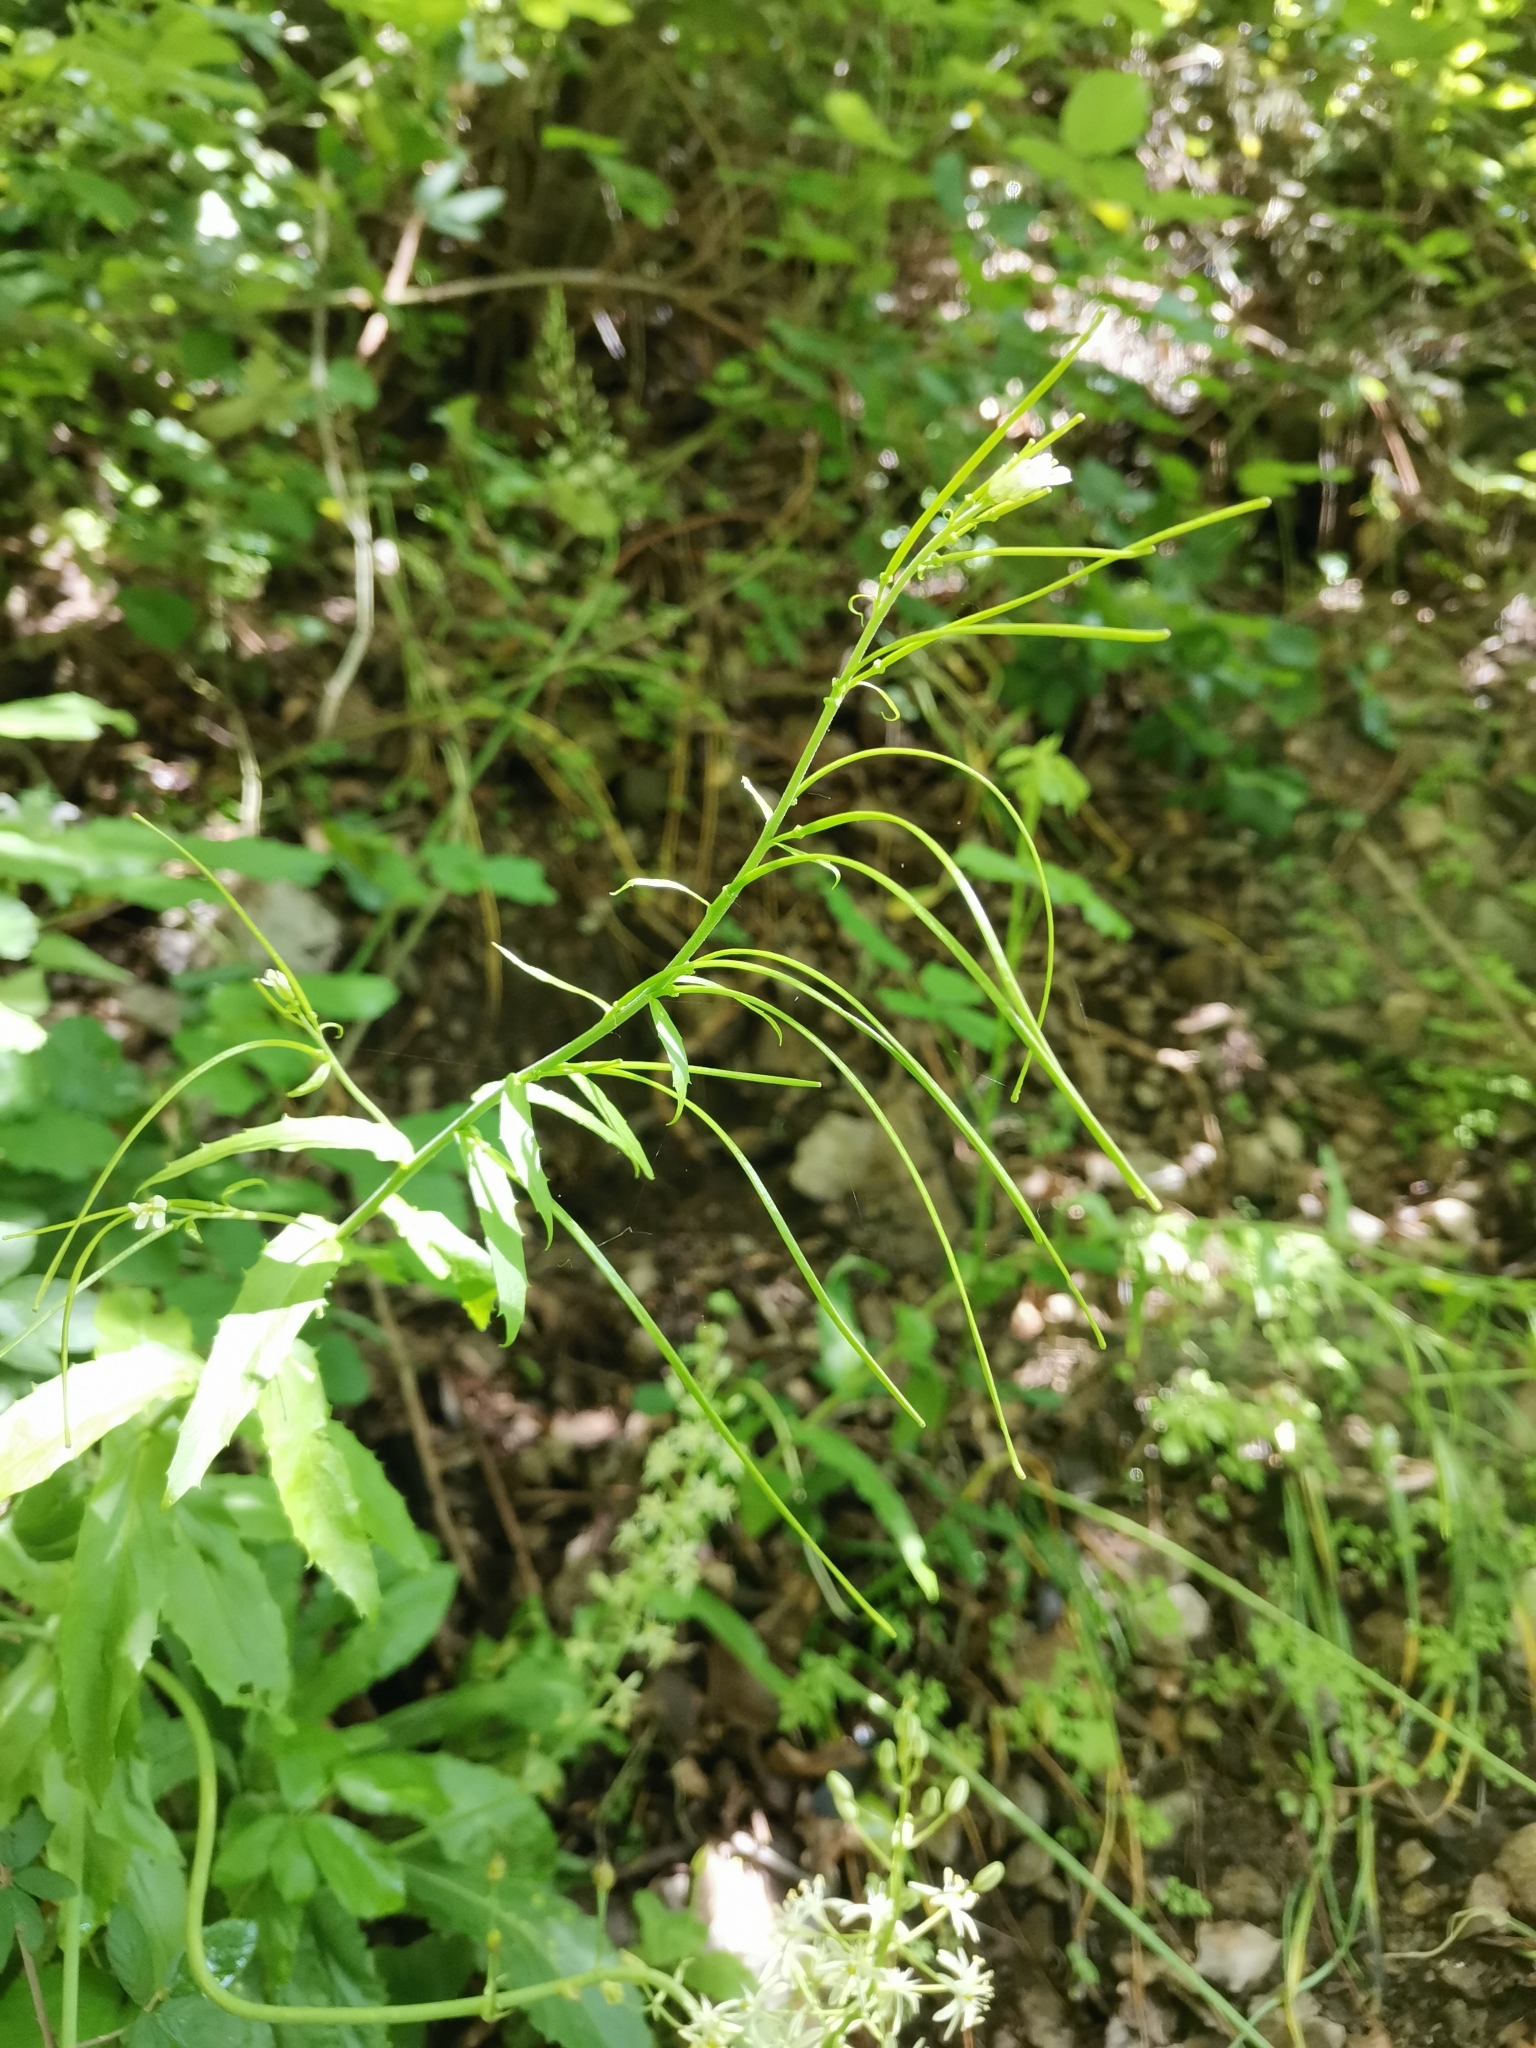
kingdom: Plantae
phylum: Tracheophyta
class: Magnoliopsida
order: Brassicales
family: Brassicaceae
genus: Pseudoturritis
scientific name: Pseudoturritis turrita
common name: Tower cress
